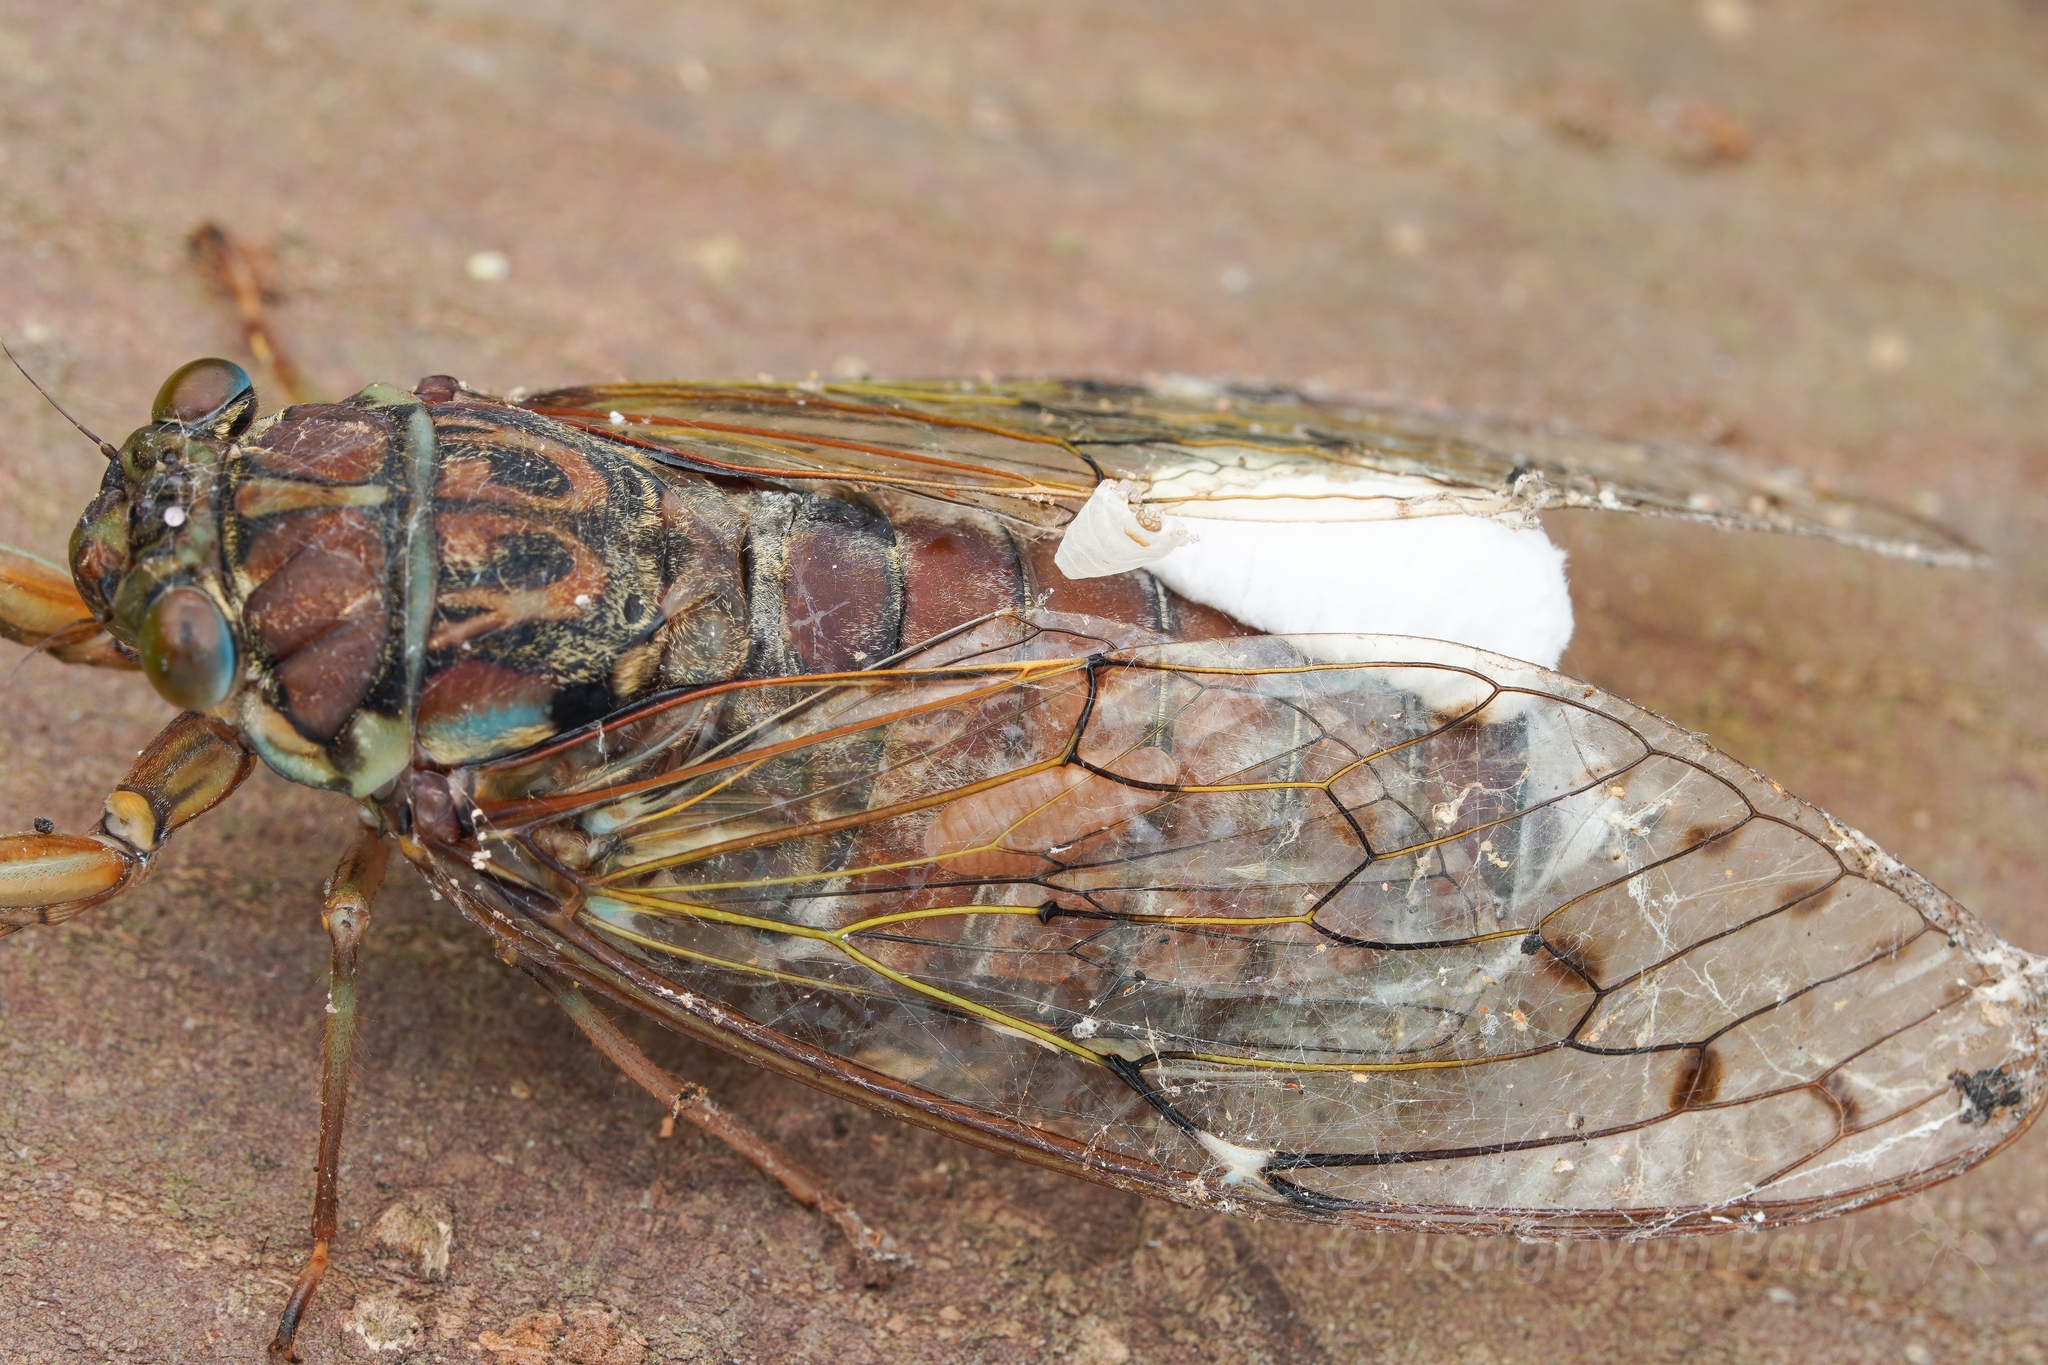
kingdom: Animalia
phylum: Arthropoda
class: Insecta
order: Lepidoptera
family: Epipyropidae
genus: Epipomponia
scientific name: Epipomponia nawai
